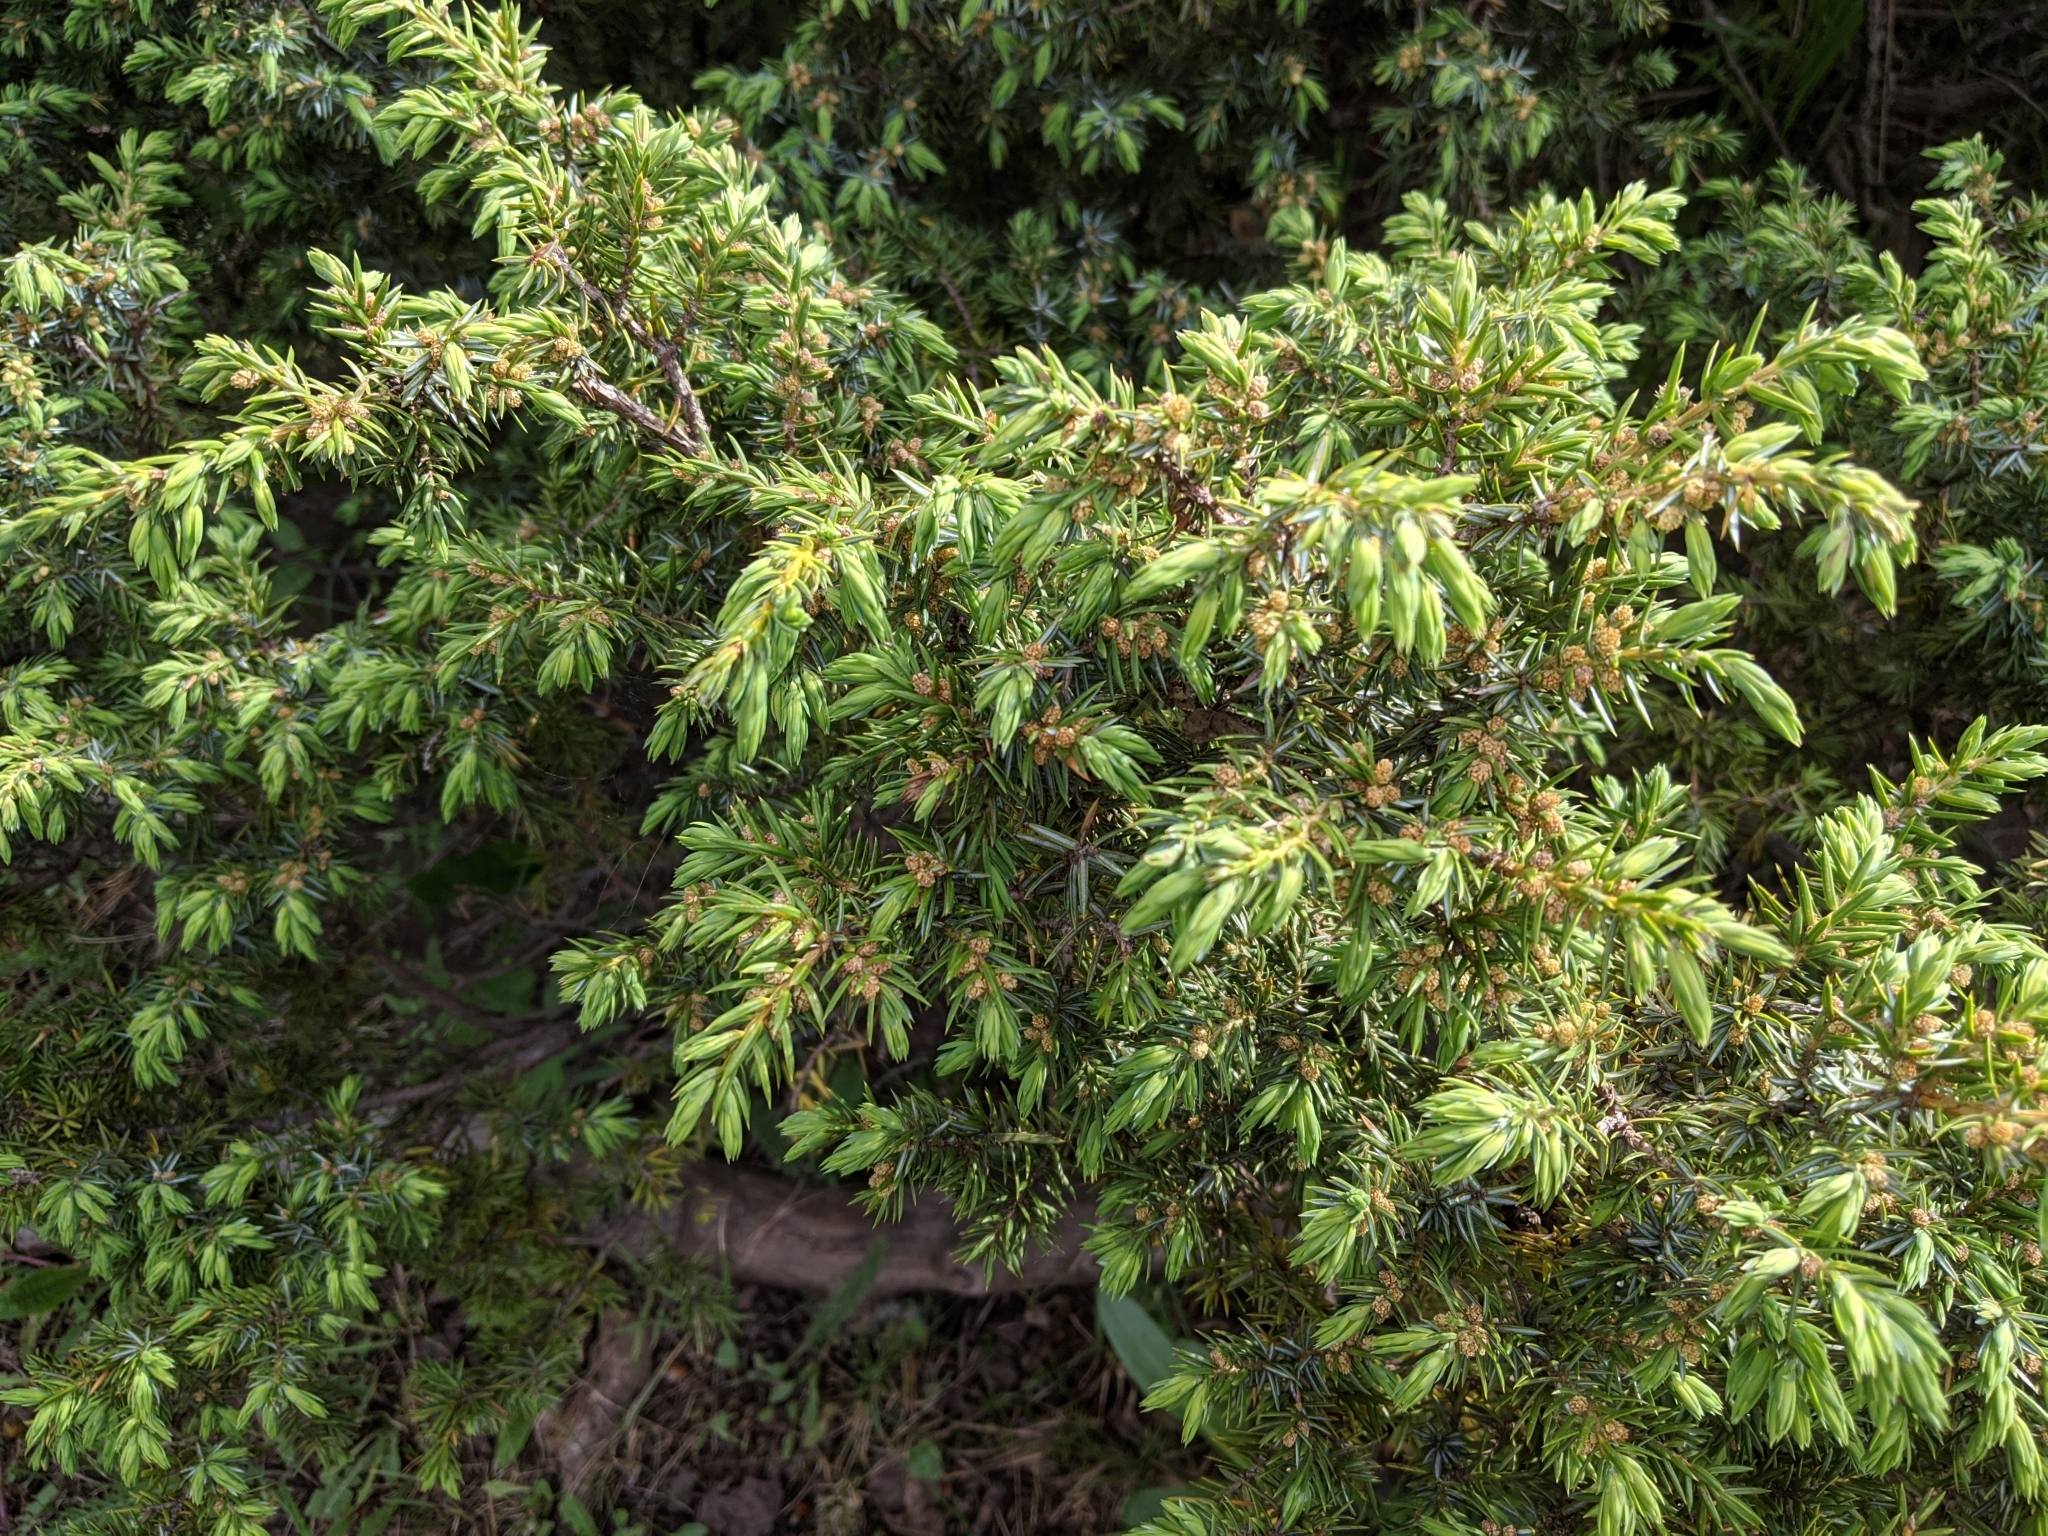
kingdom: Plantae
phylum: Tracheophyta
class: Pinopsida
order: Pinales
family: Cupressaceae
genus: Juniperus
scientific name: Juniperus communis
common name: Common juniper
